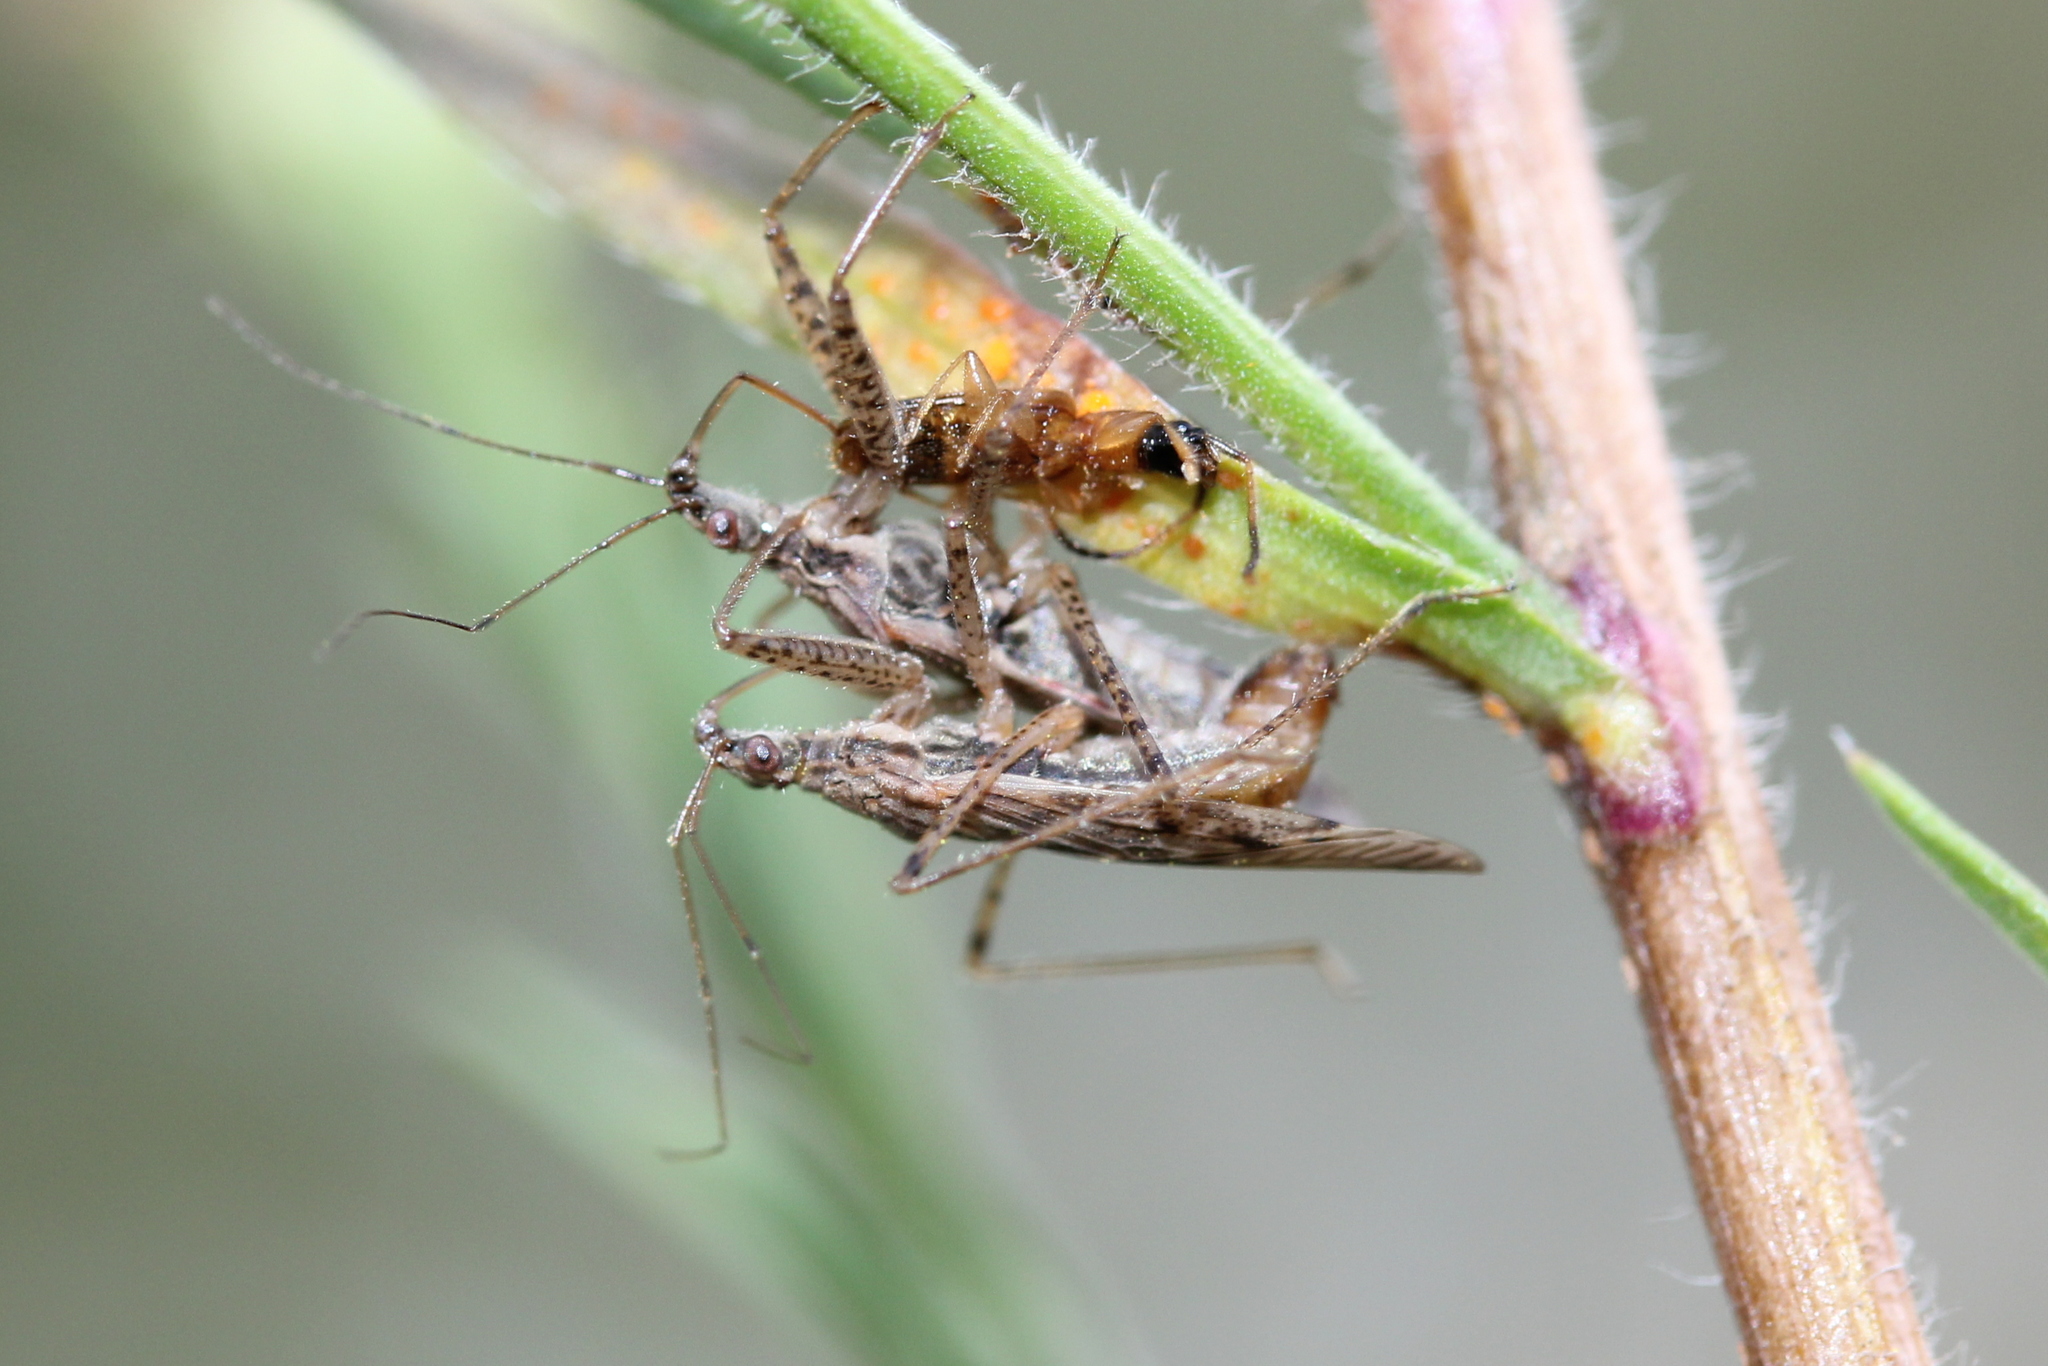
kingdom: Animalia
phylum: Arthropoda
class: Insecta
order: Hemiptera
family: Nabidae
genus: Nabis
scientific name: Nabis roseipennis
